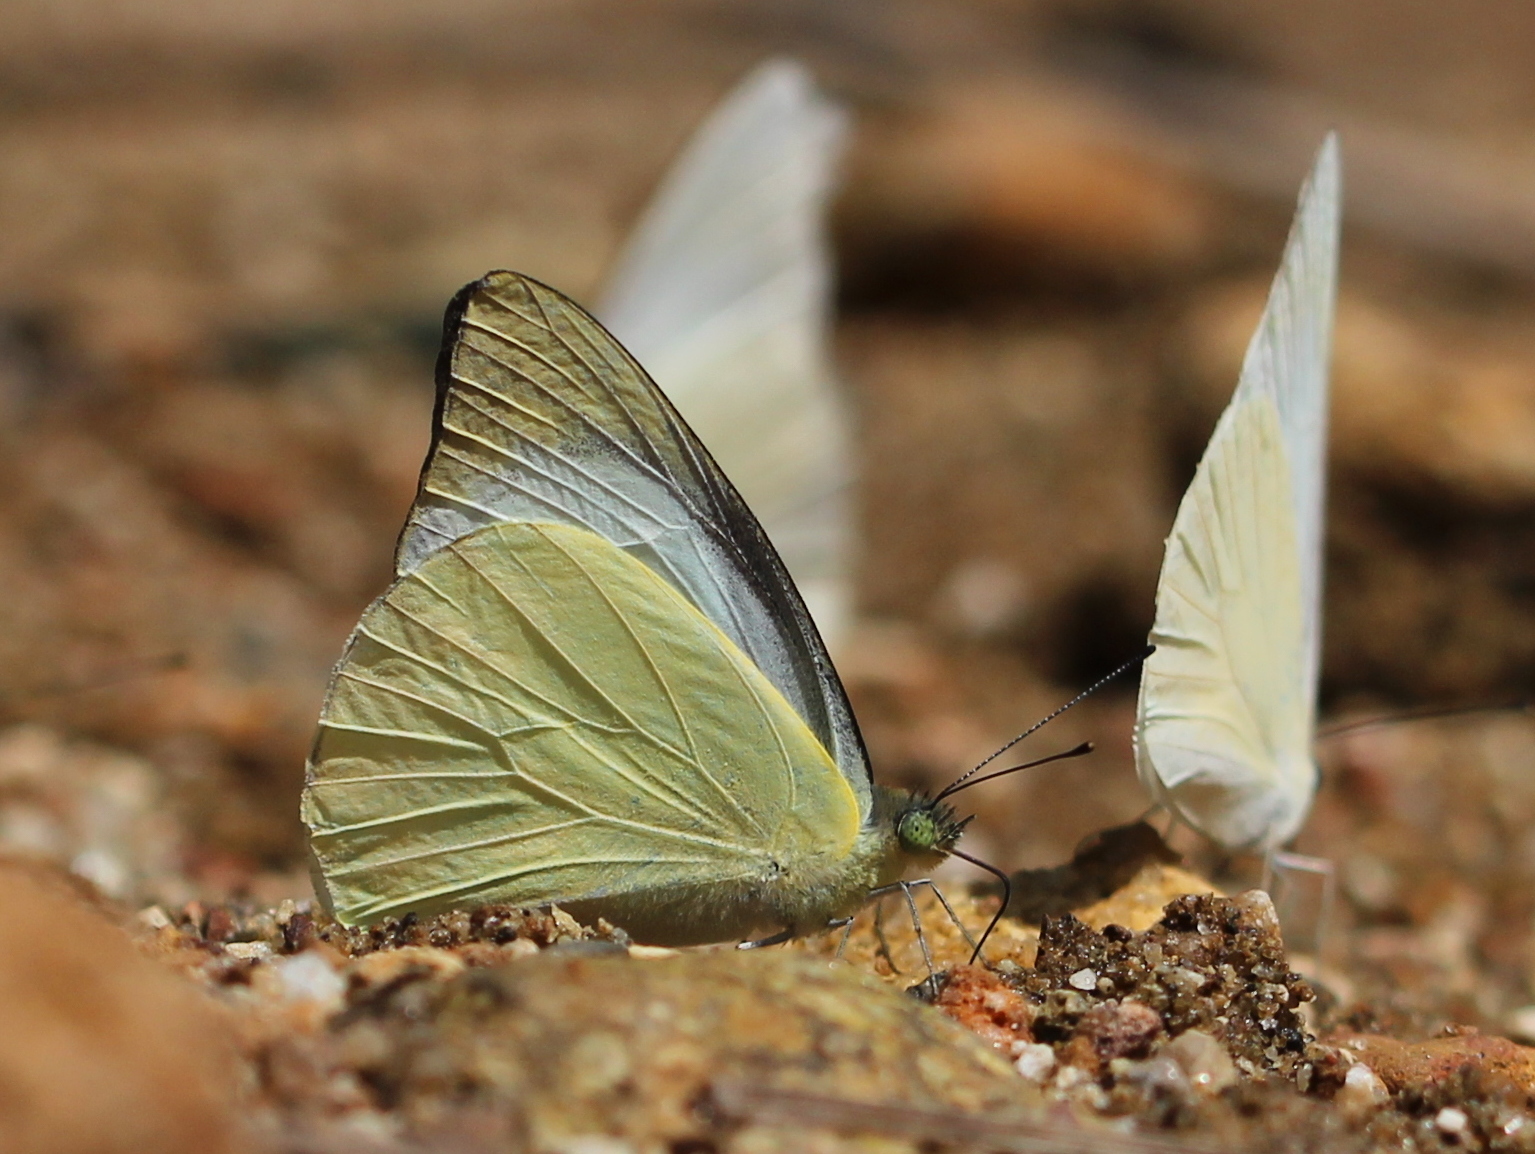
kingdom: Animalia
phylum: Arthropoda
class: Insecta
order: Lepidoptera
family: Pieridae
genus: Appias
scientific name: Appias albina
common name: Common albatross
